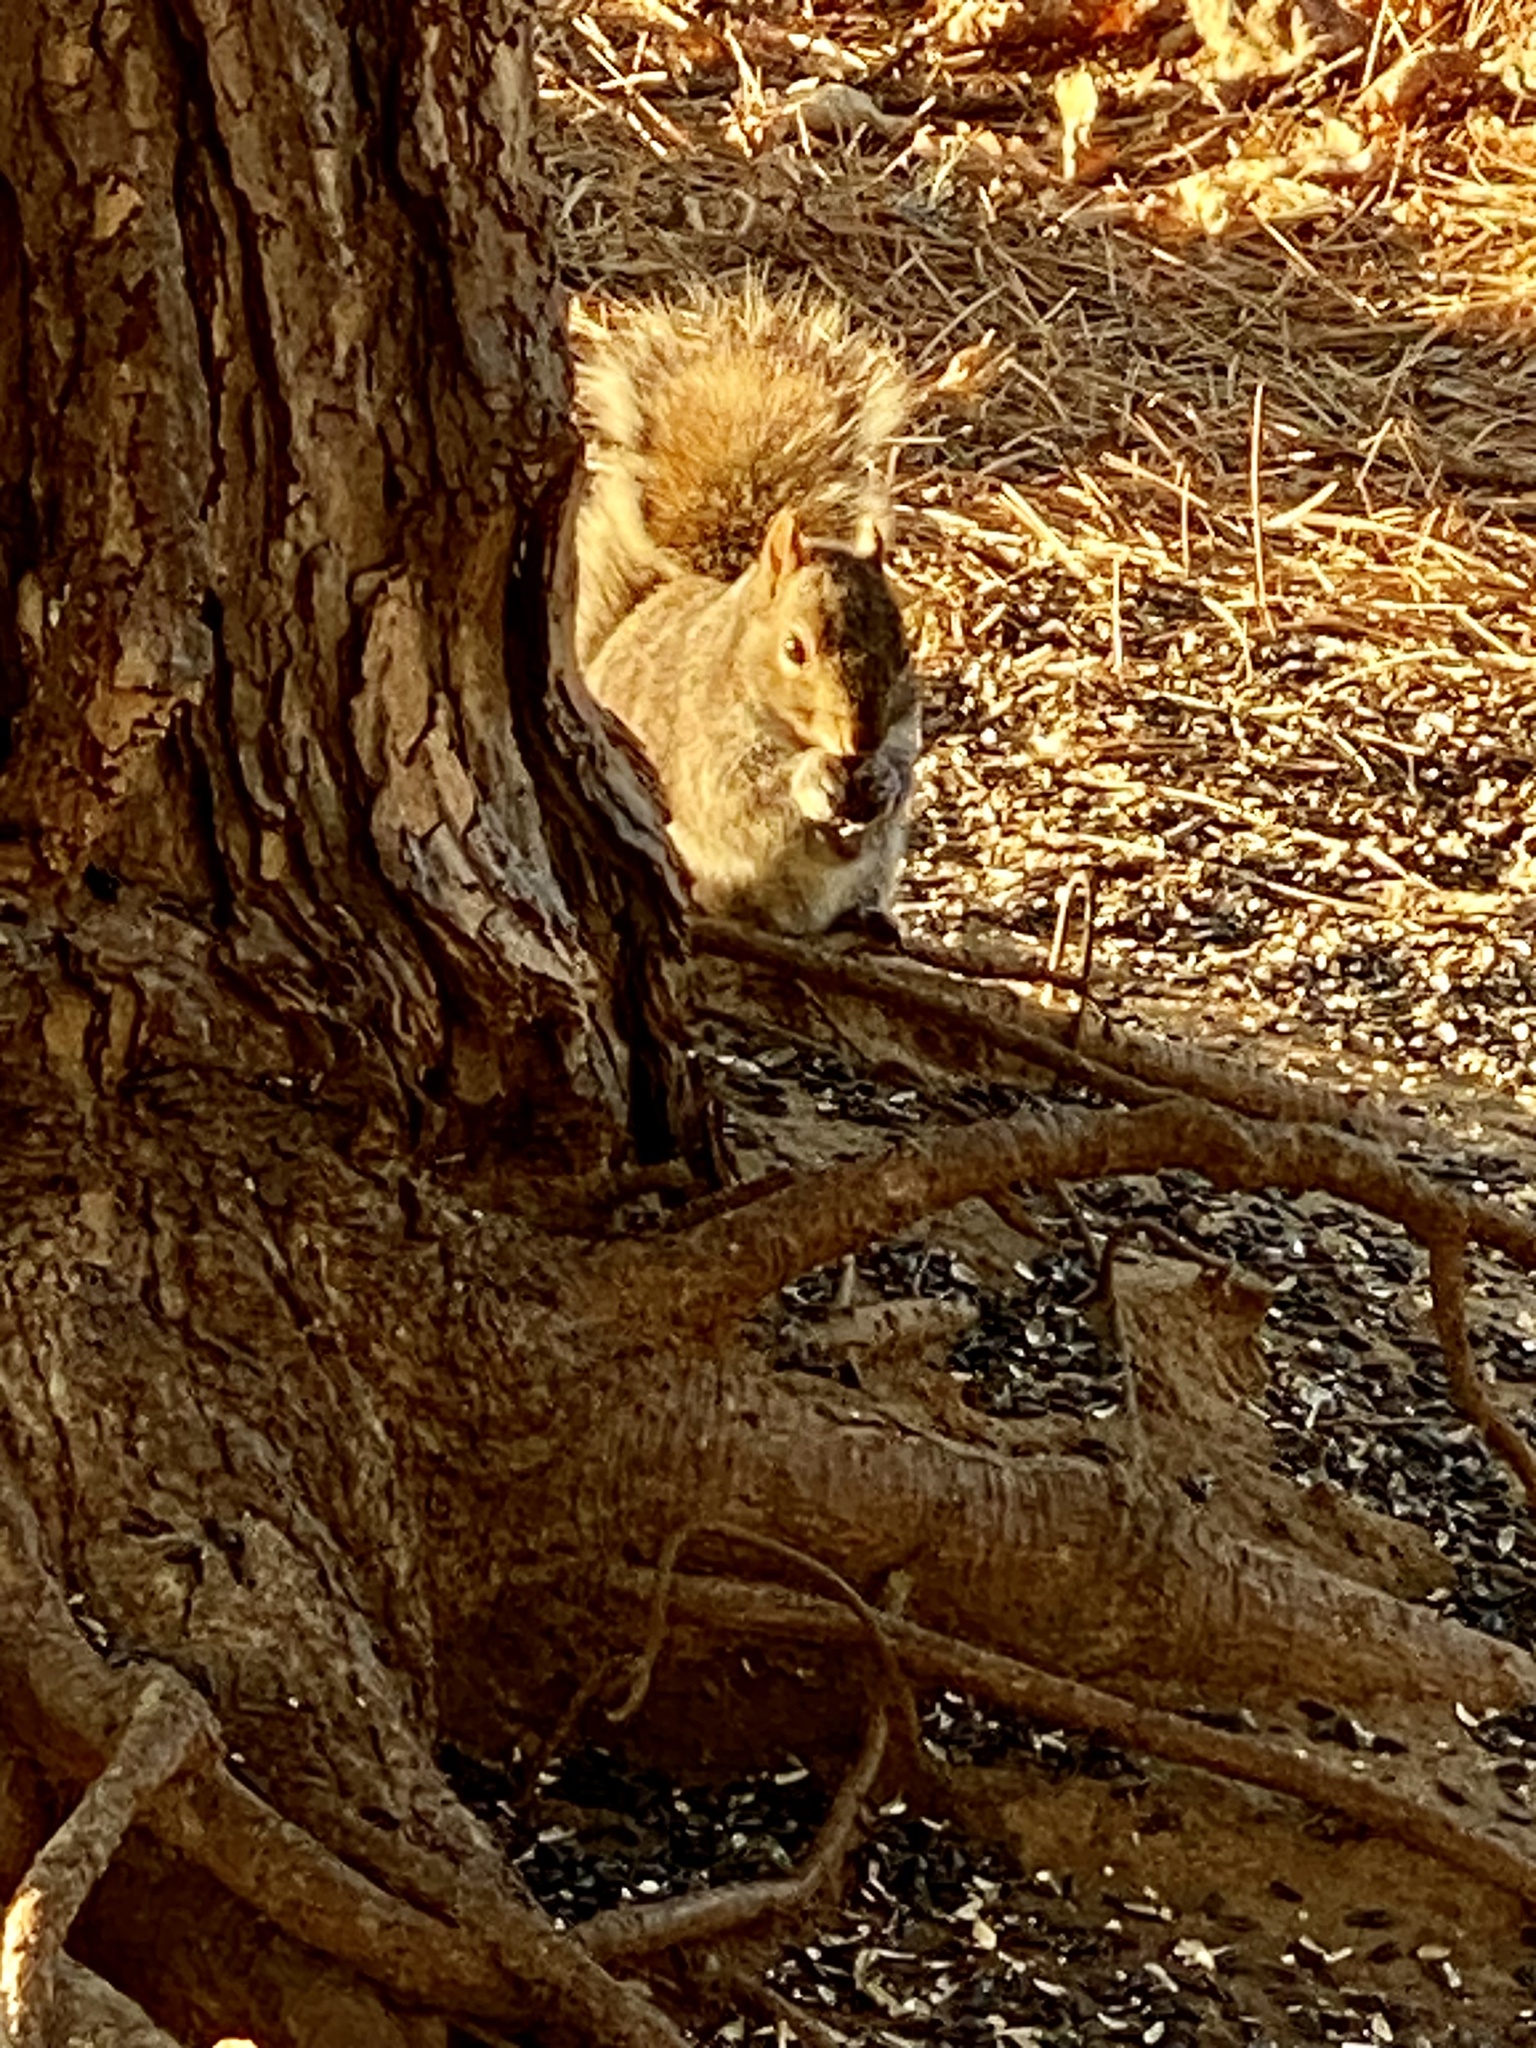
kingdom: Animalia
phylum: Chordata
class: Mammalia
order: Rodentia
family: Sciuridae
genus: Sciurus
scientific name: Sciurus carolinensis
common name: Eastern gray squirrel
